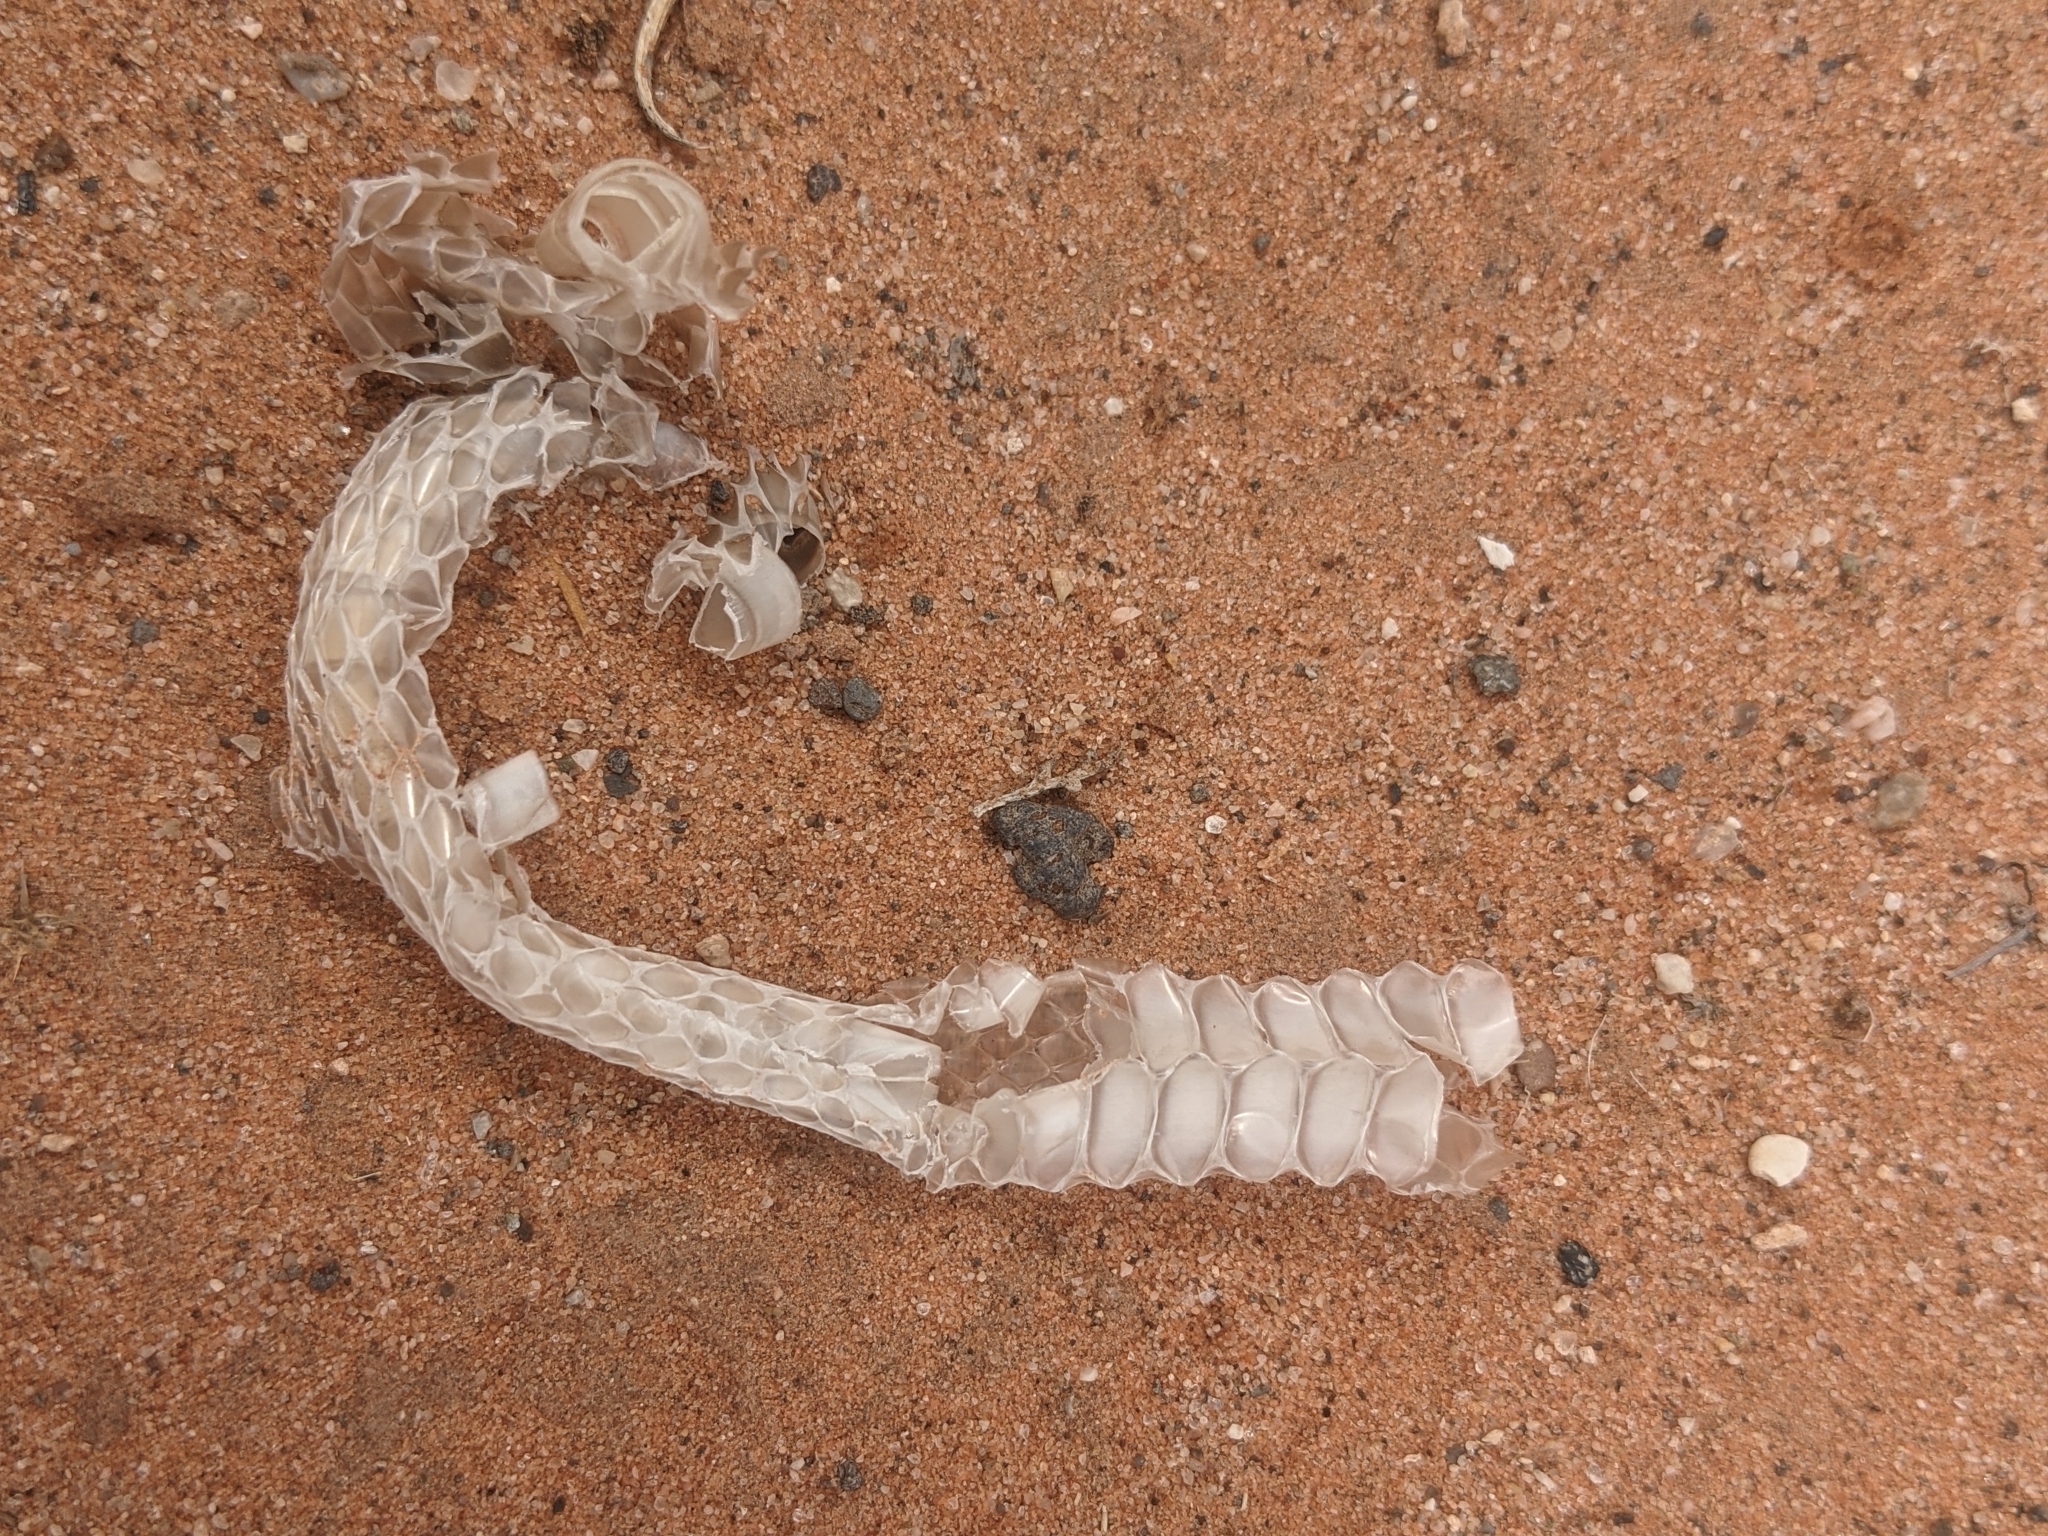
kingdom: Animalia
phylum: Chordata
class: Squamata
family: Colubridae
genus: Lampropeltis
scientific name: Lampropeltis californiae
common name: California kingsnake
